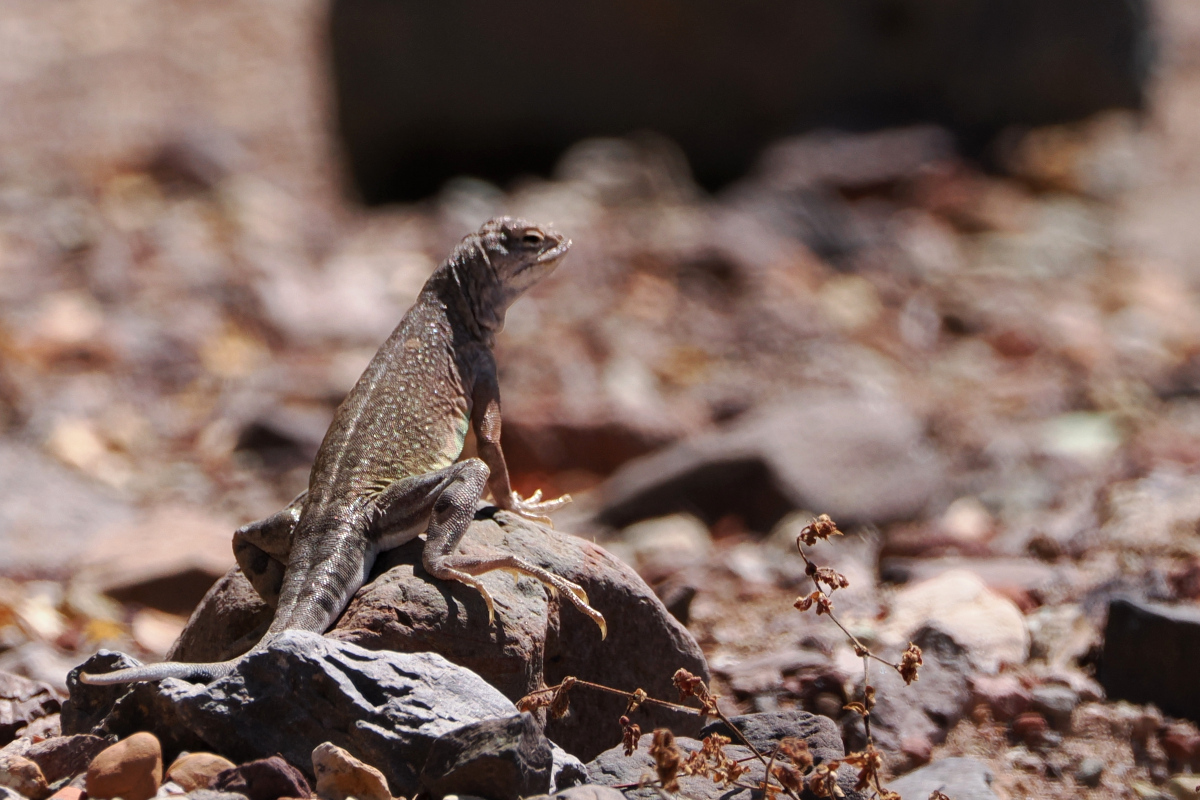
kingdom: Animalia
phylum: Chordata
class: Squamata
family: Phrynosomatidae
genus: Callisaurus
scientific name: Callisaurus draconoides
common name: Zebra-tailed lizard
